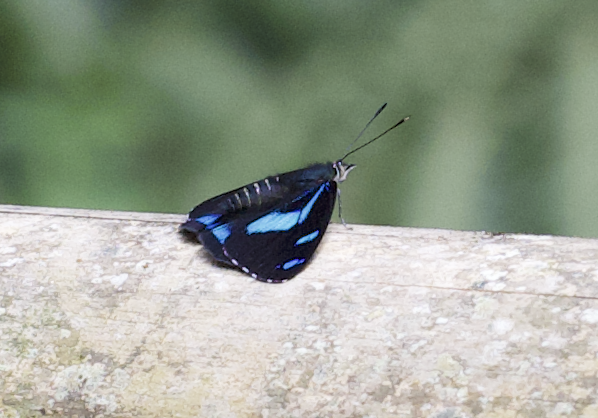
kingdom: Animalia
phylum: Arthropoda
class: Insecta
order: Lepidoptera
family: Nymphalidae
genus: Perisama
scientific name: Perisama humboldtii
